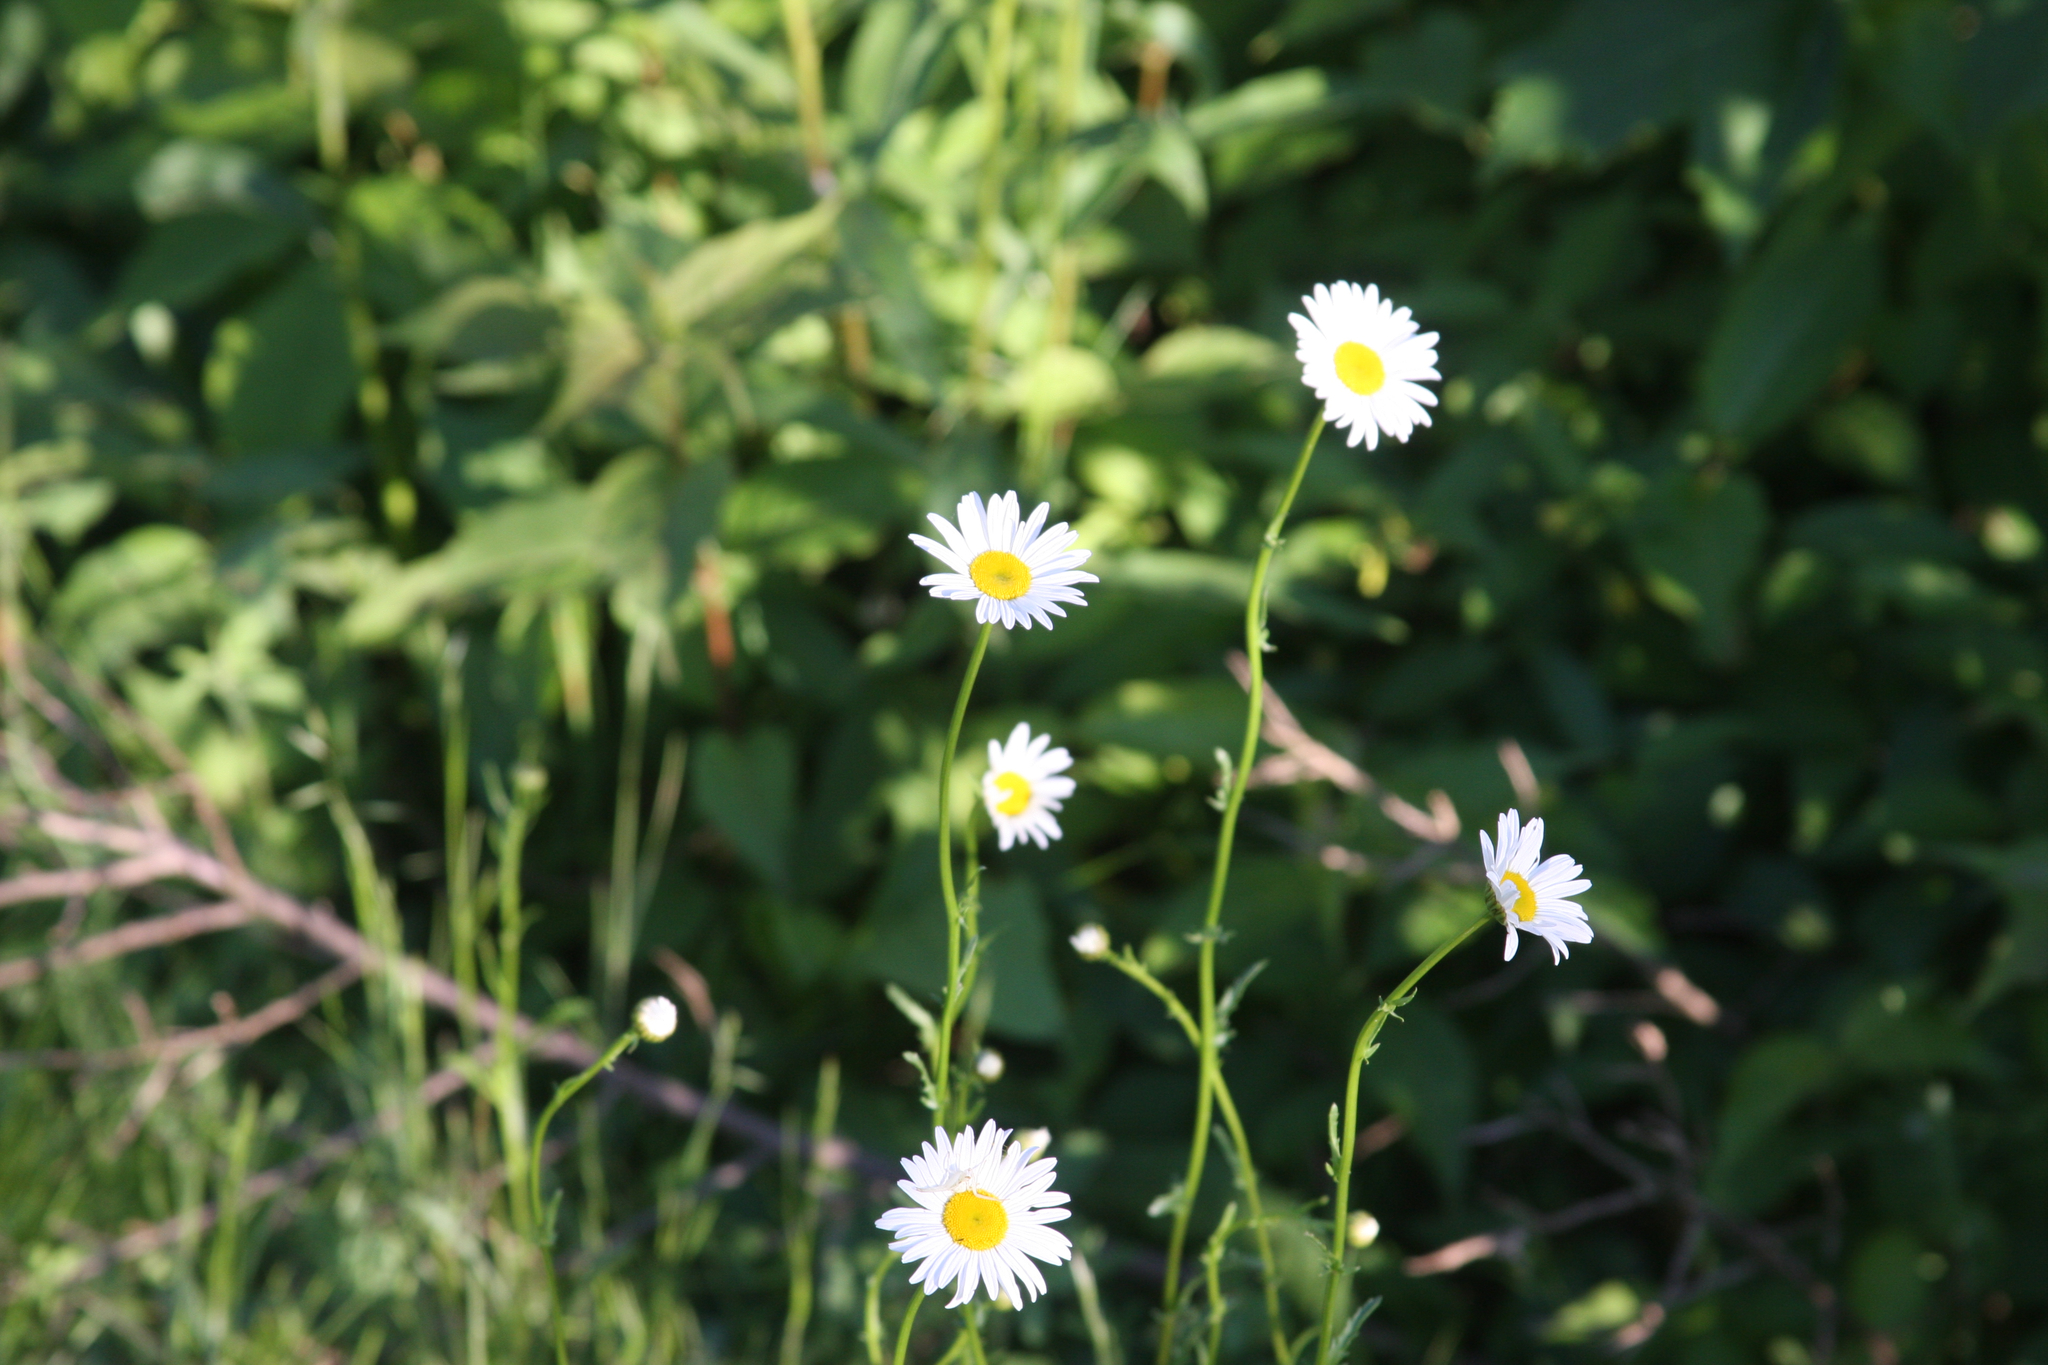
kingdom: Plantae
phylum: Tracheophyta
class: Magnoliopsida
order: Asterales
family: Asteraceae
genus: Leucanthemum
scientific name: Leucanthemum vulgare
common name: Oxeye daisy
